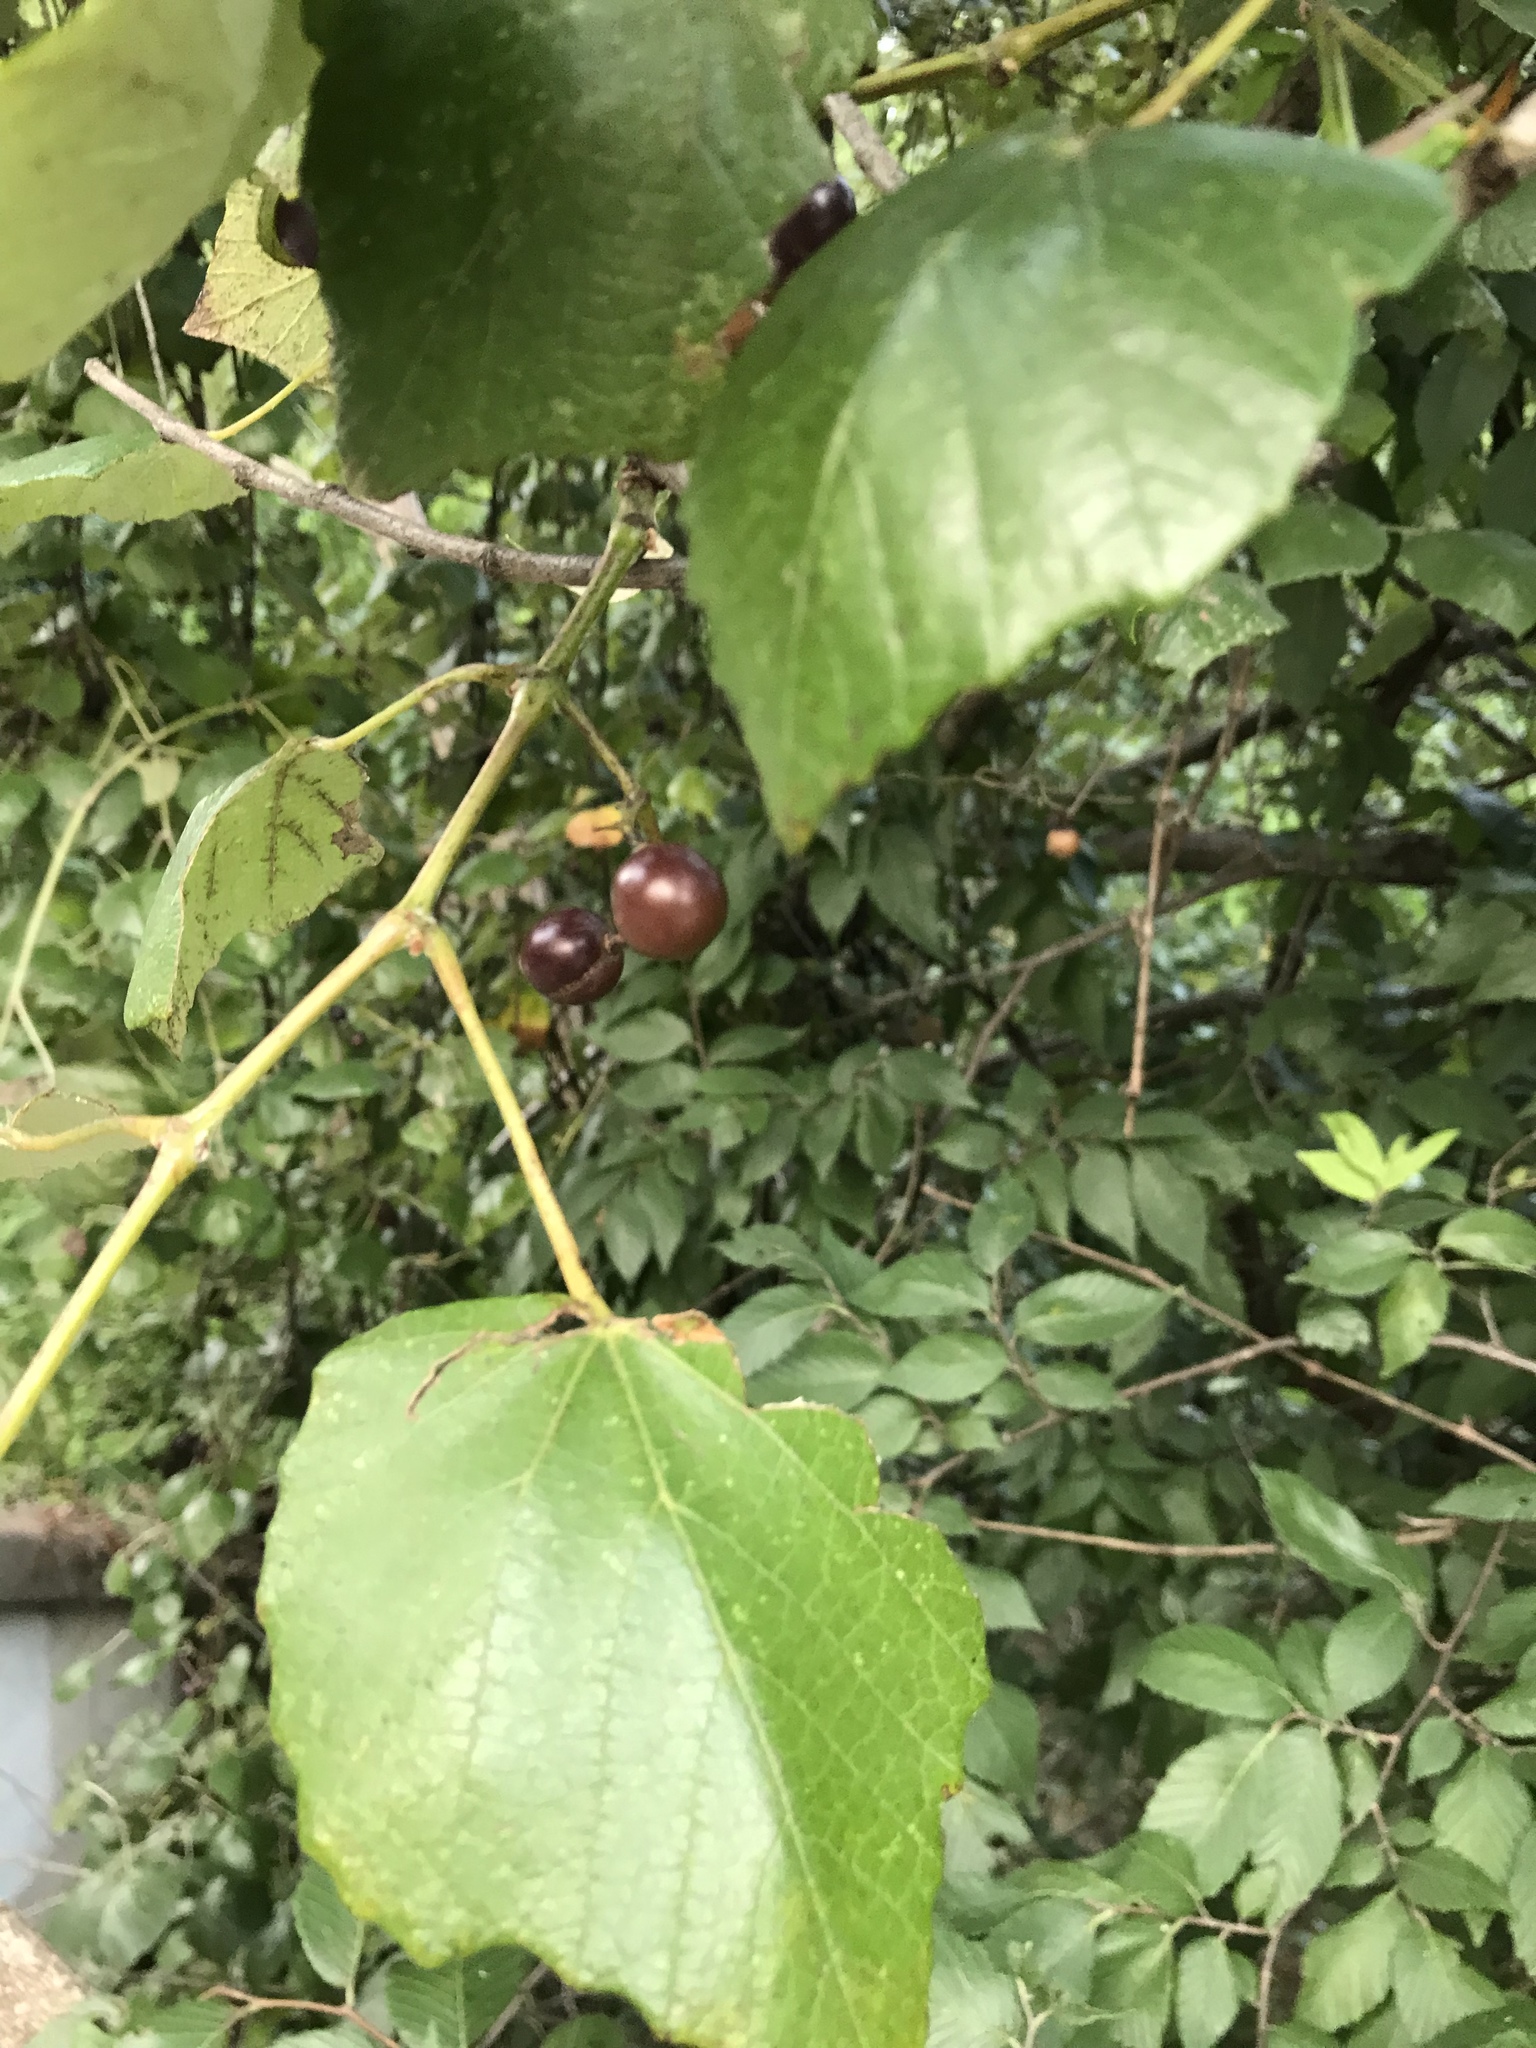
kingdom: Plantae
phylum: Tracheophyta
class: Magnoliopsida
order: Vitales
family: Vitaceae
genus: Vitis
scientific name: Vitis mustangensis
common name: Mustang grape
